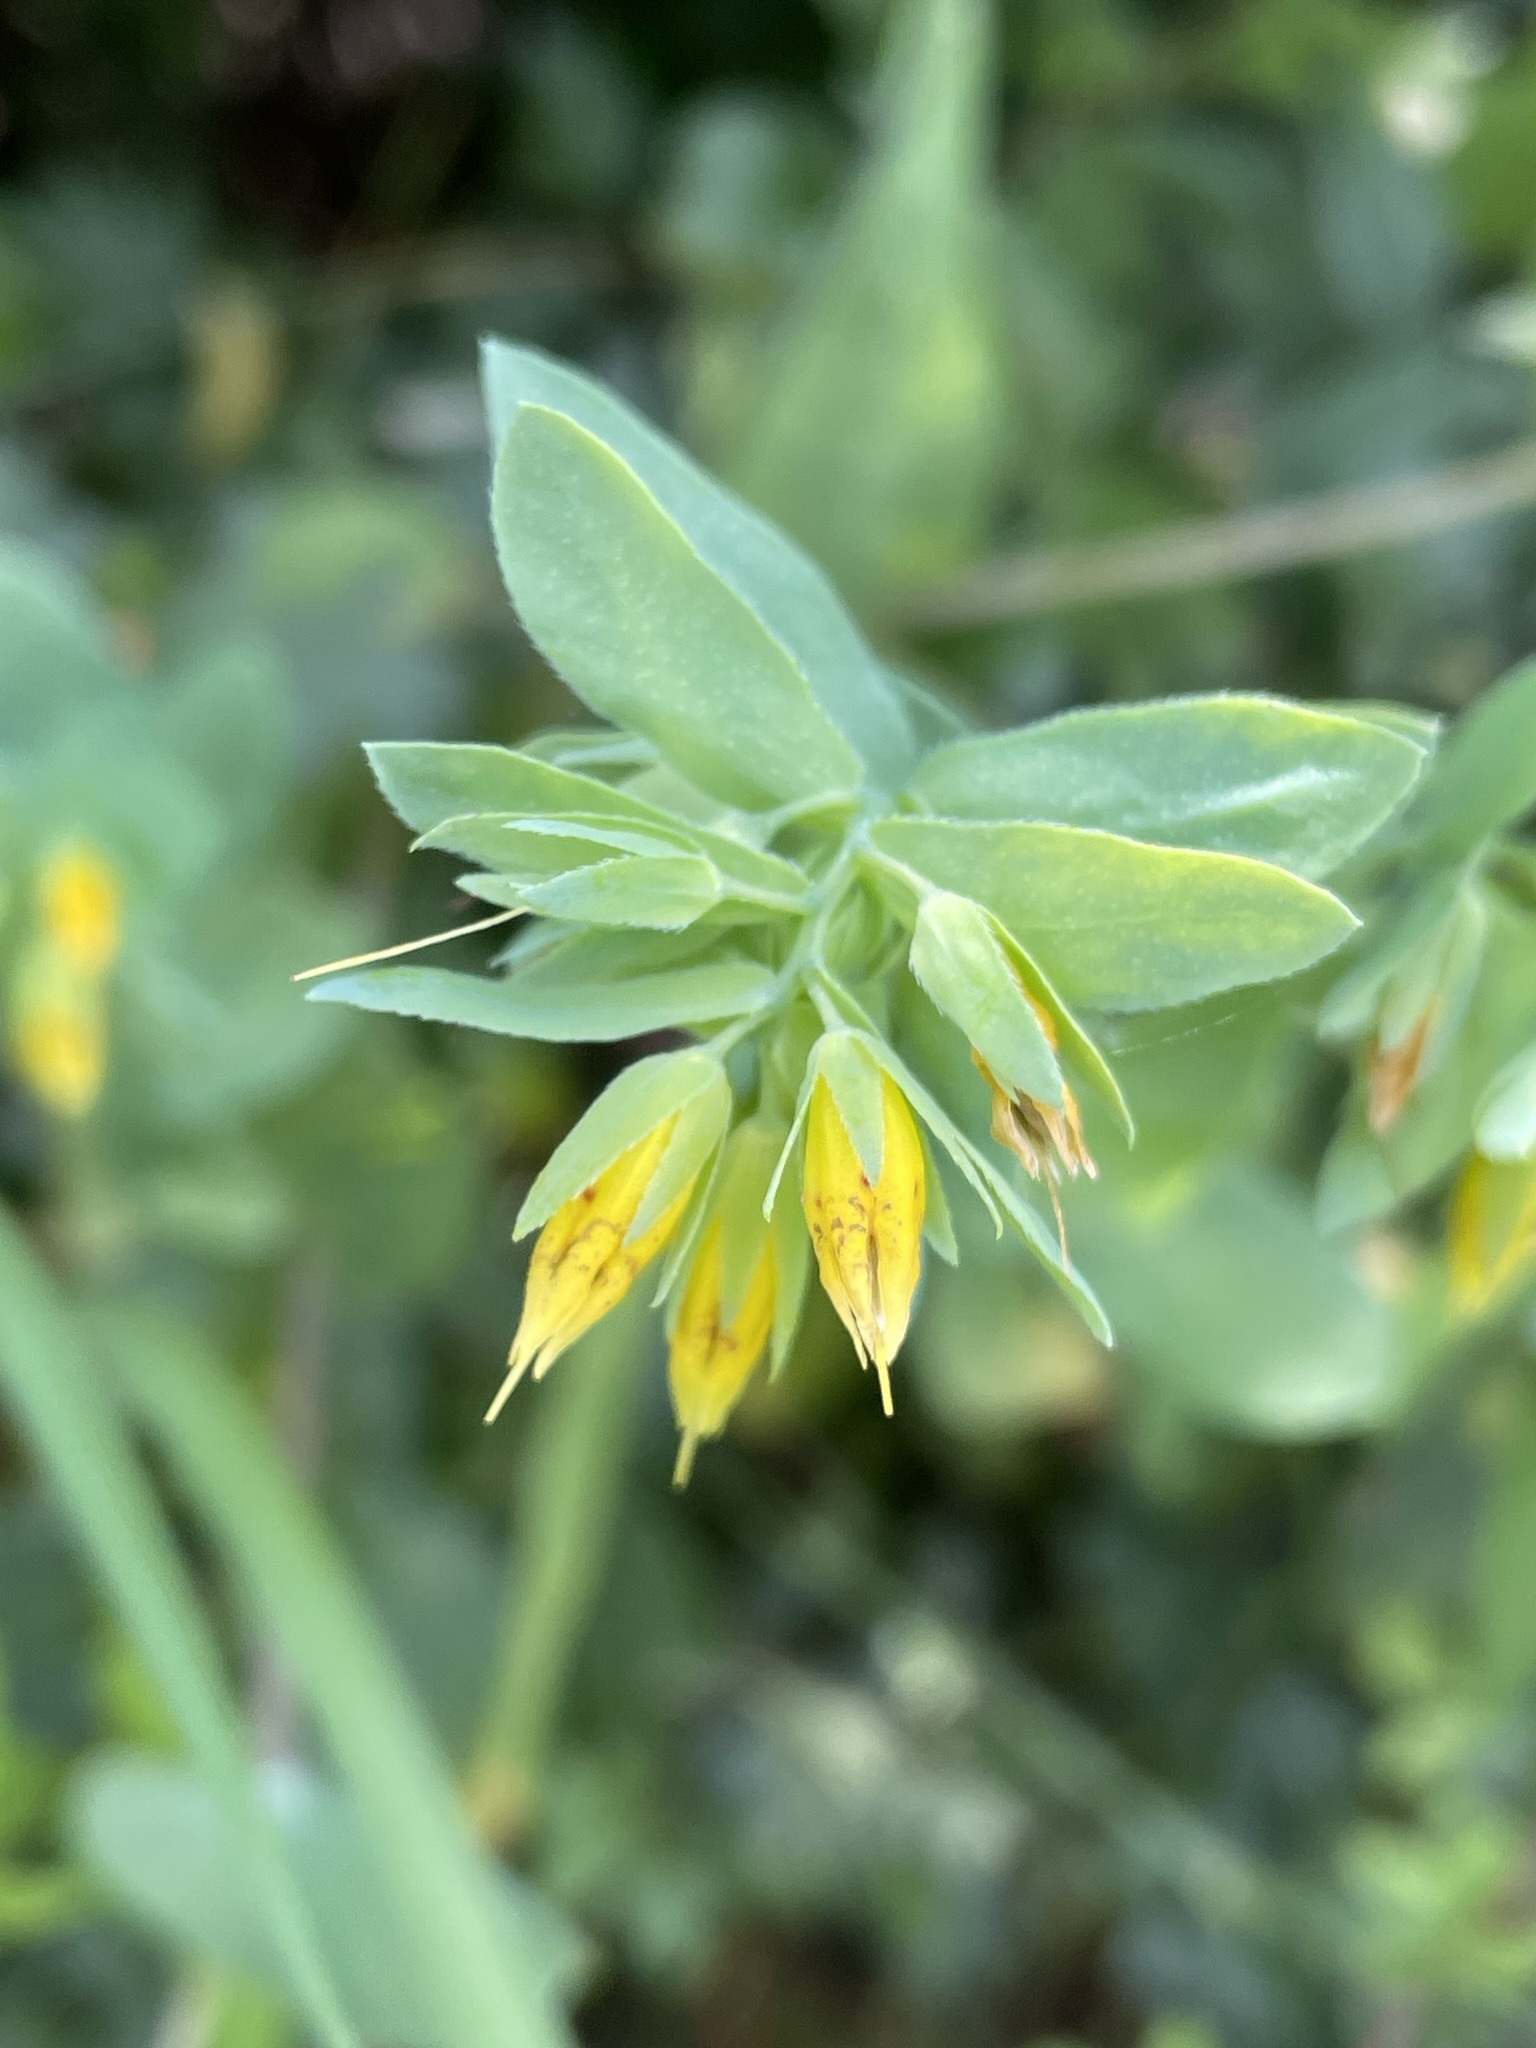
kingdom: Plantae
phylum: Tracheophyta
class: Magnoliopsida
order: Boraginales
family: Boraginaceae
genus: Cerinthe
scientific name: Cerinthe minor
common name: Lesser honeywort
